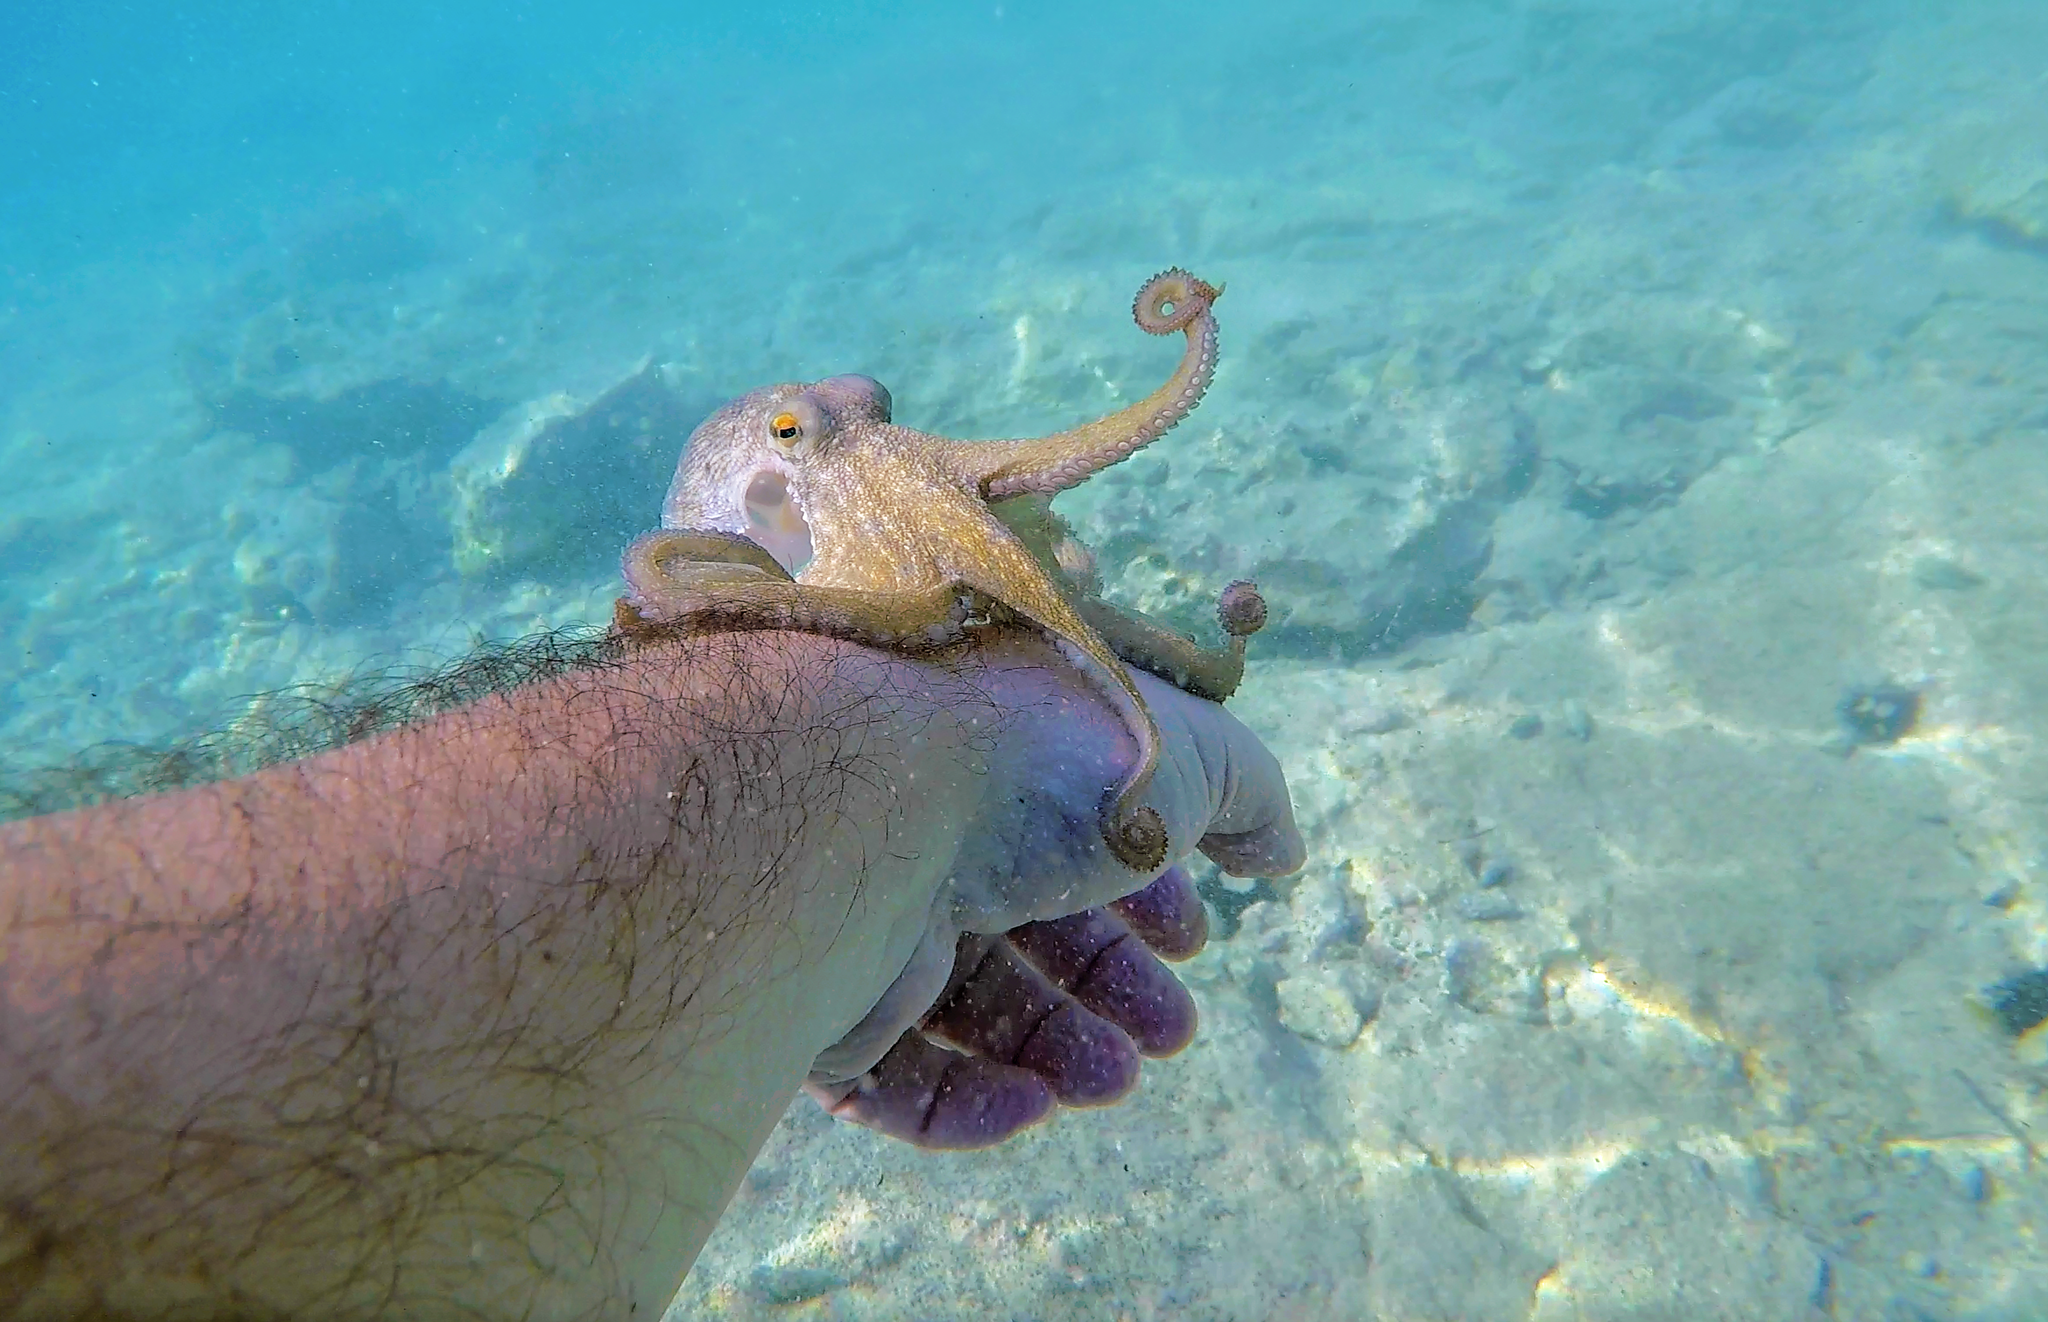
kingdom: Animalia
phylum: Mollusca
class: Cephalopoda
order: Octopoda
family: Octopodidae
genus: Octopus
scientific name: Octopus vulgaris
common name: Common octopus
